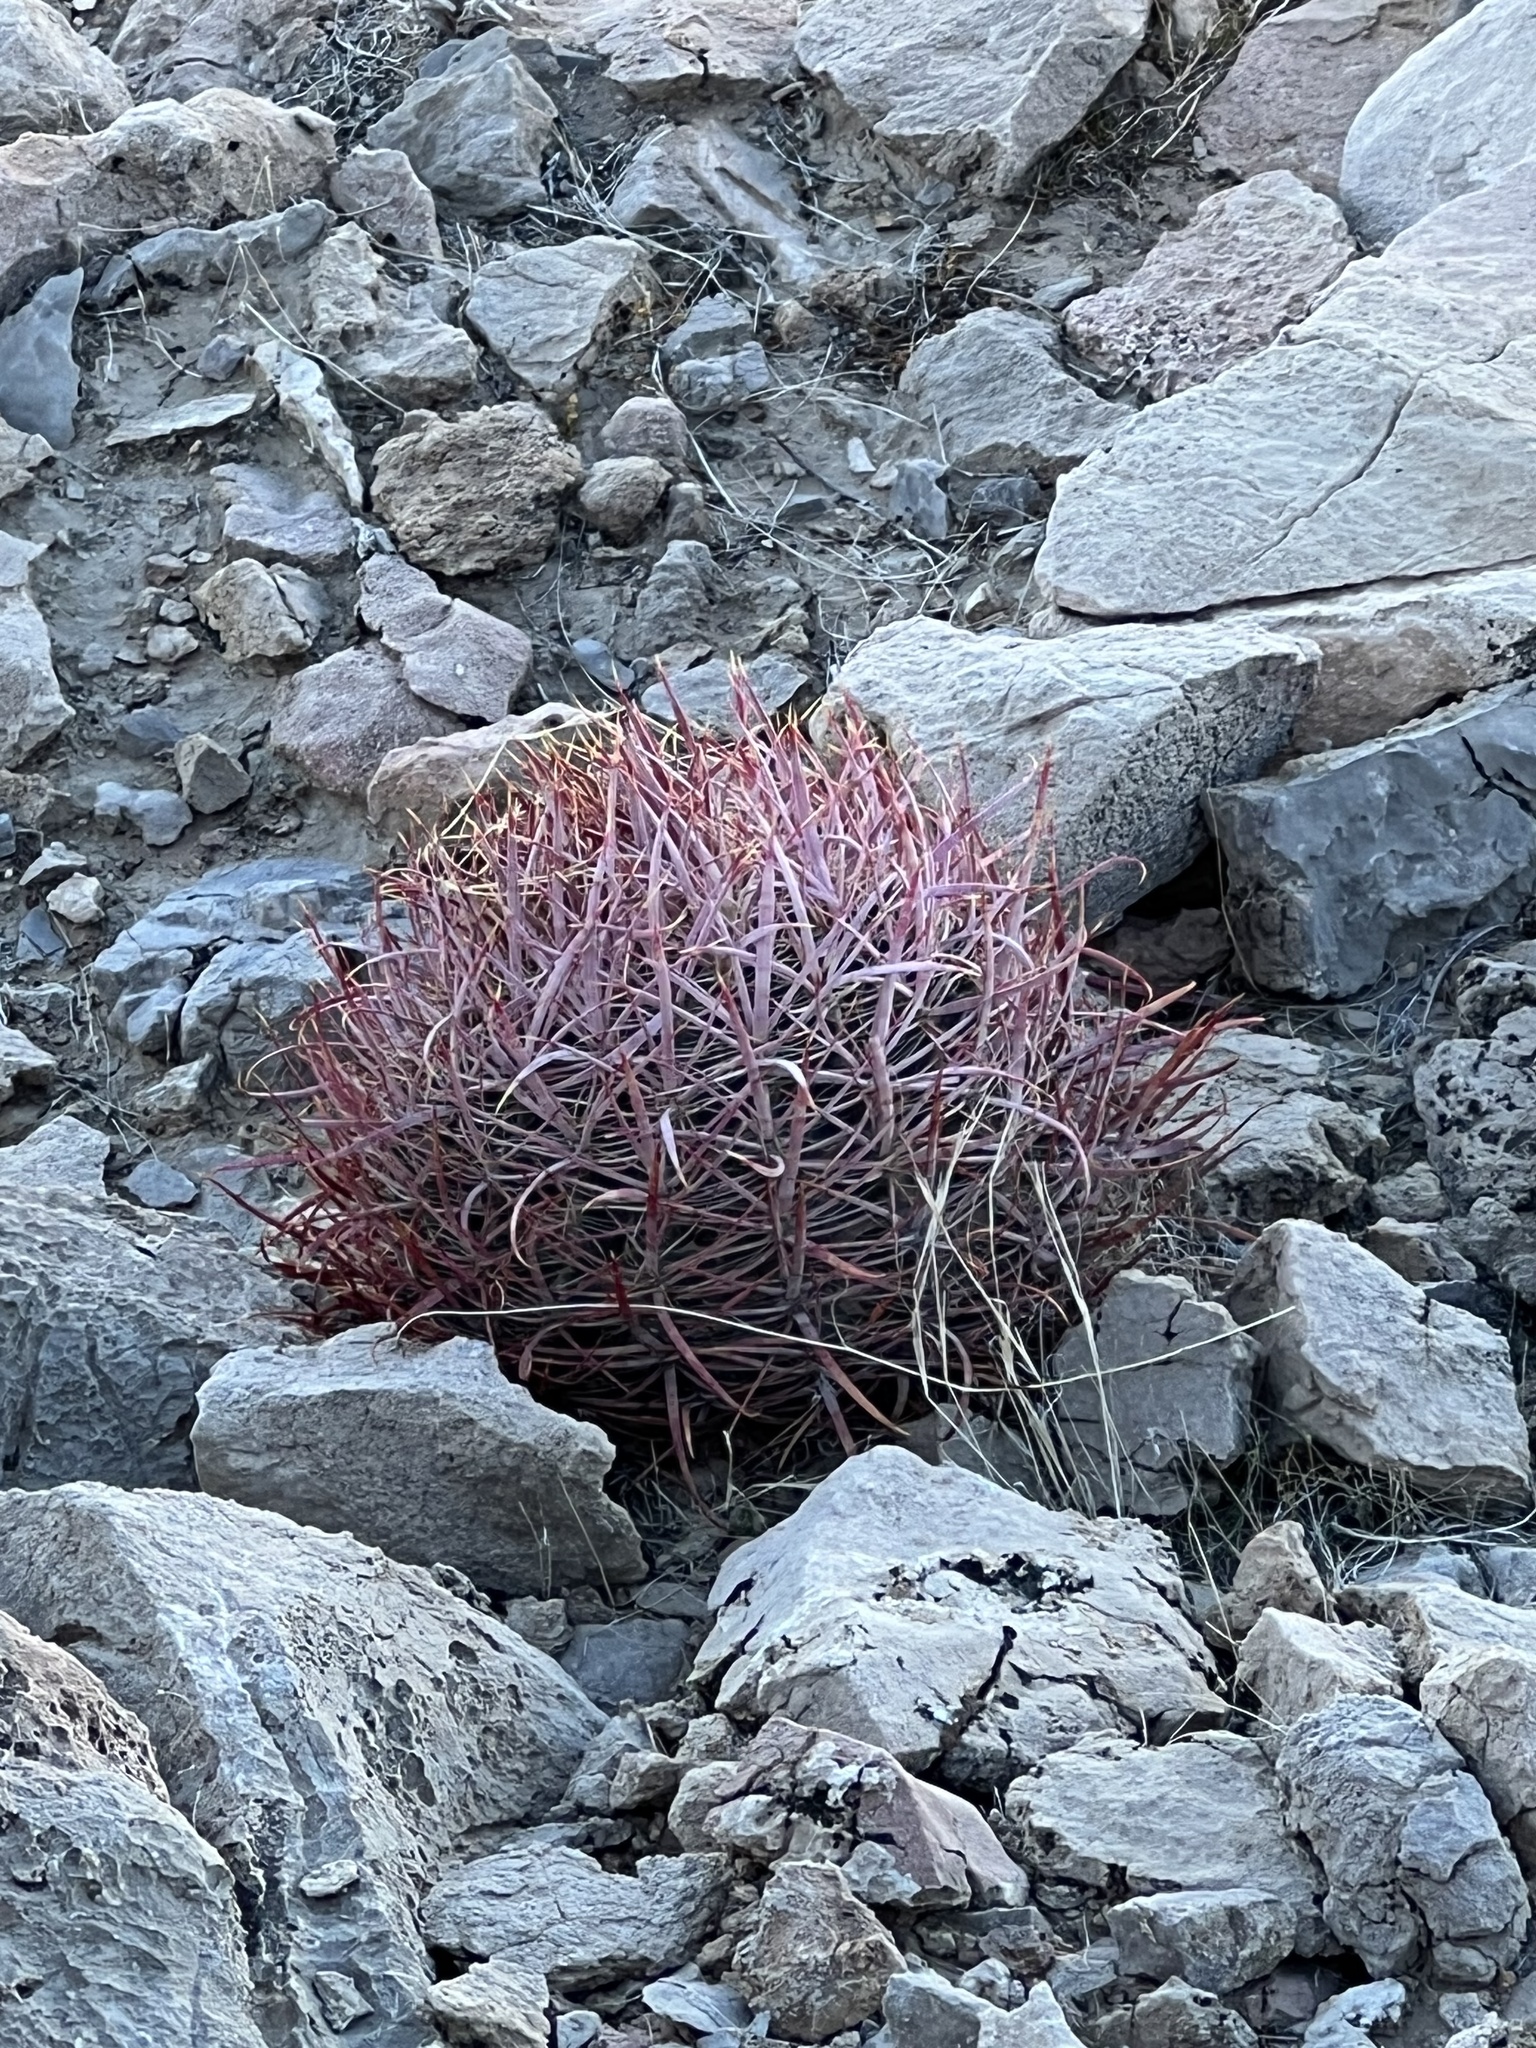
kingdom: Plantae
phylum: Tracheophyta
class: Magnoliopsida
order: Caryophyllales
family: Cactaceae
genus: Ferocactus
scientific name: Ferocactus cylindraceus
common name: California barrel cactus
